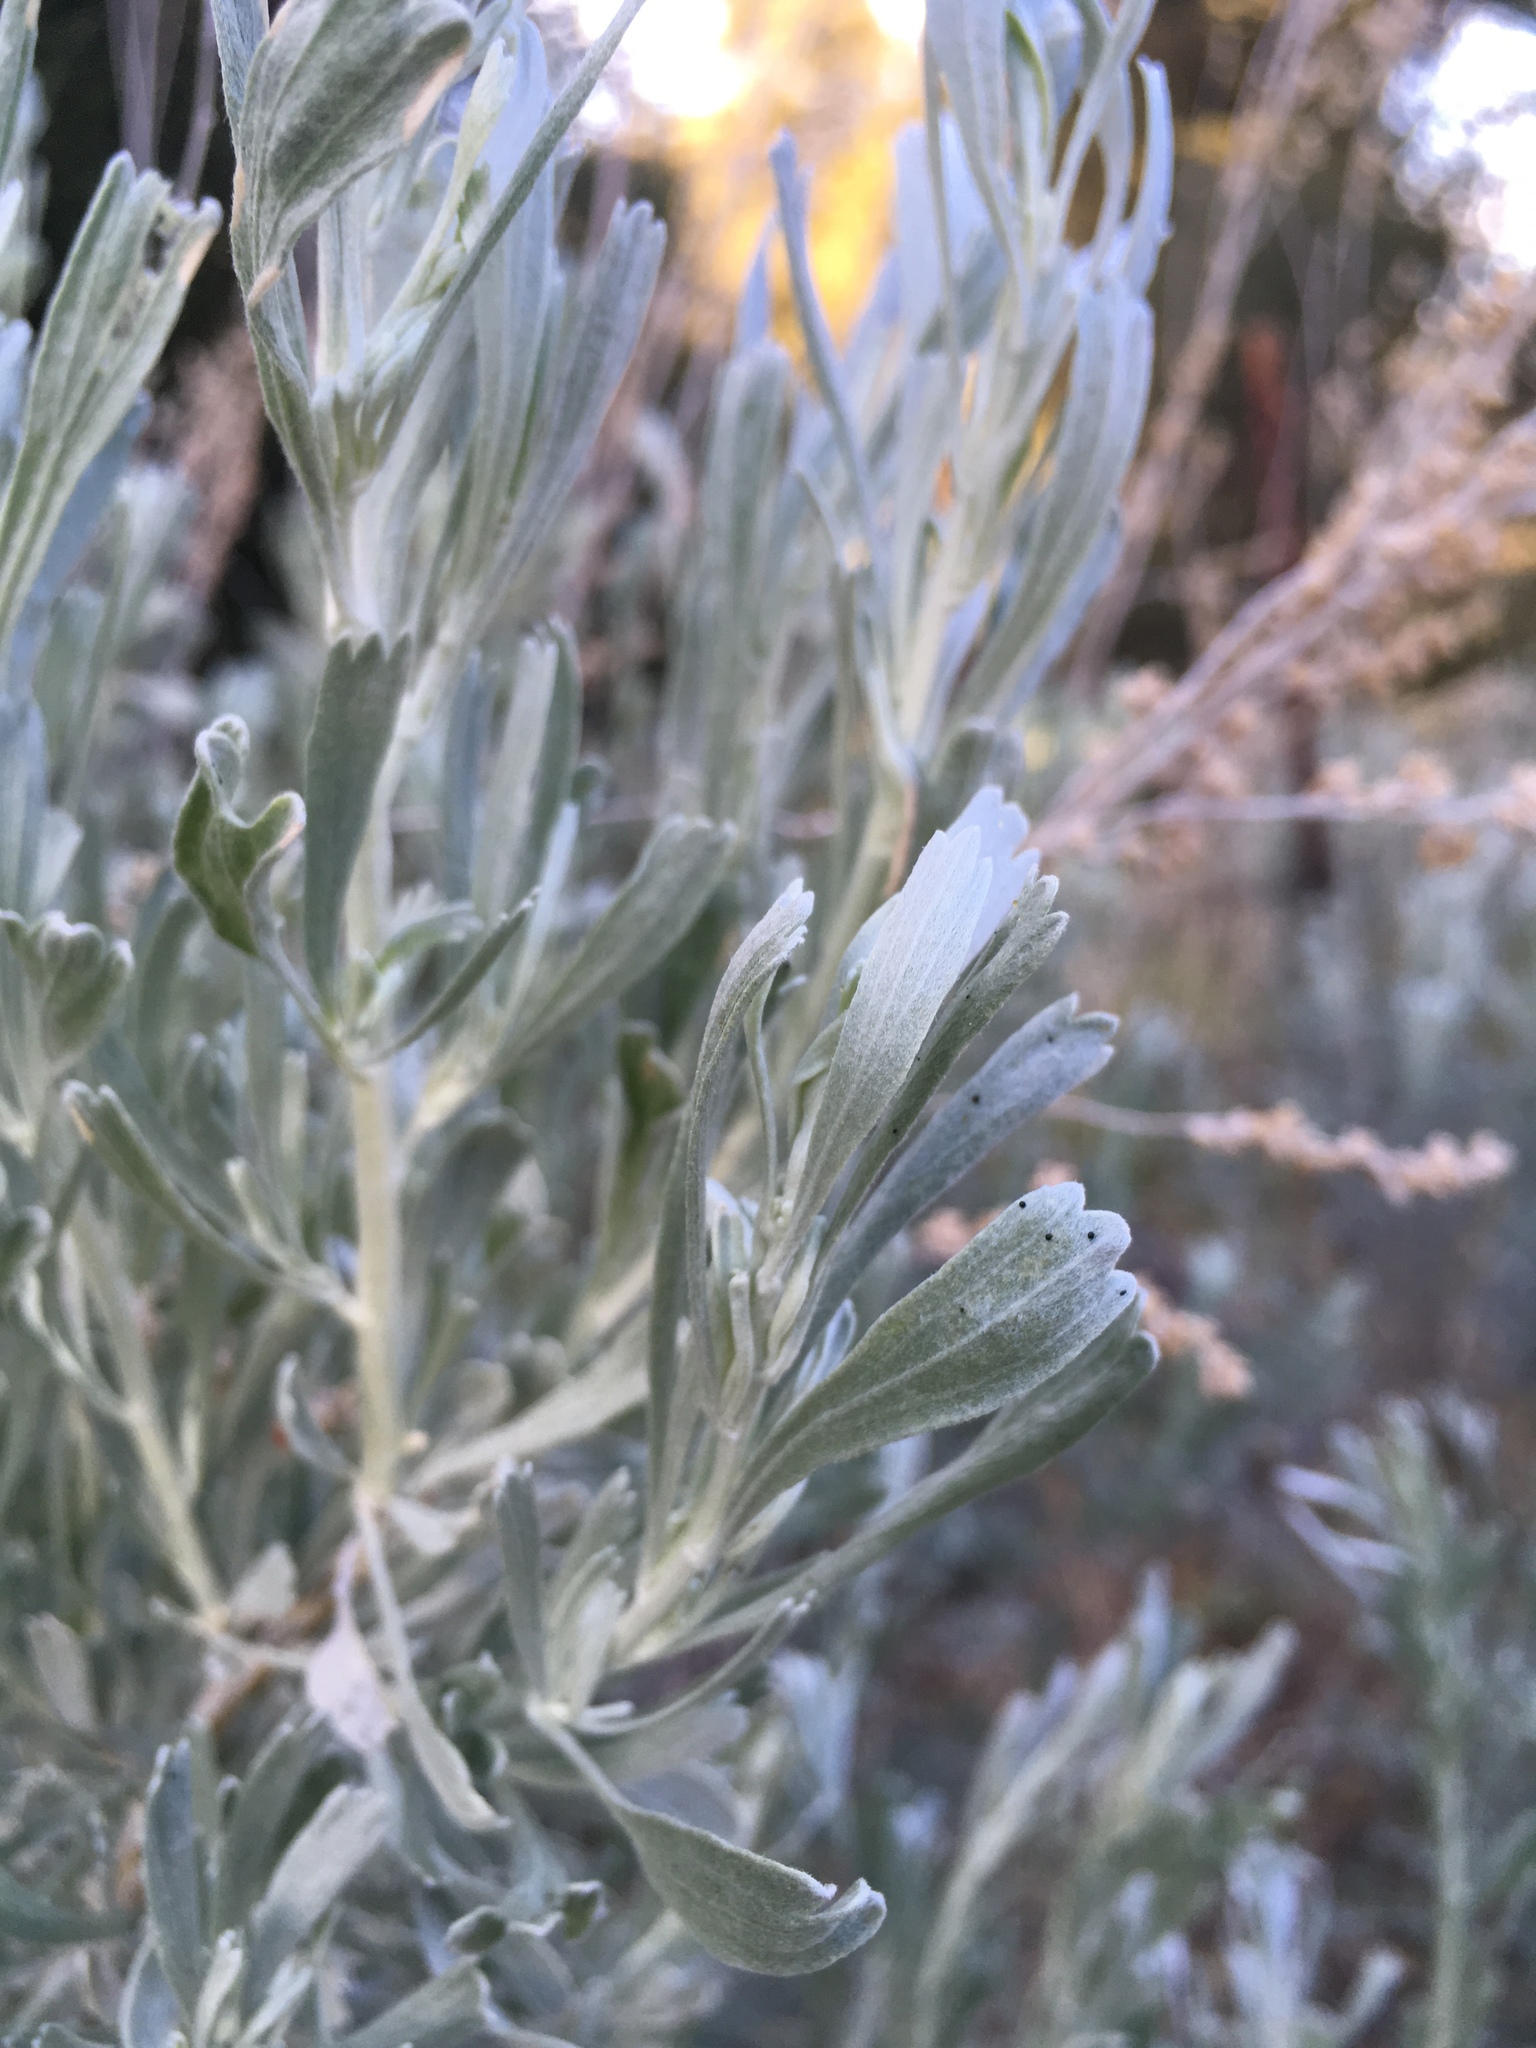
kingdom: Plantae
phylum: Tracheophyta
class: Magnoliopsida
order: Asterales
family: Asteraceae
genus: Artemisia
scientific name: Artemisia tridentata
